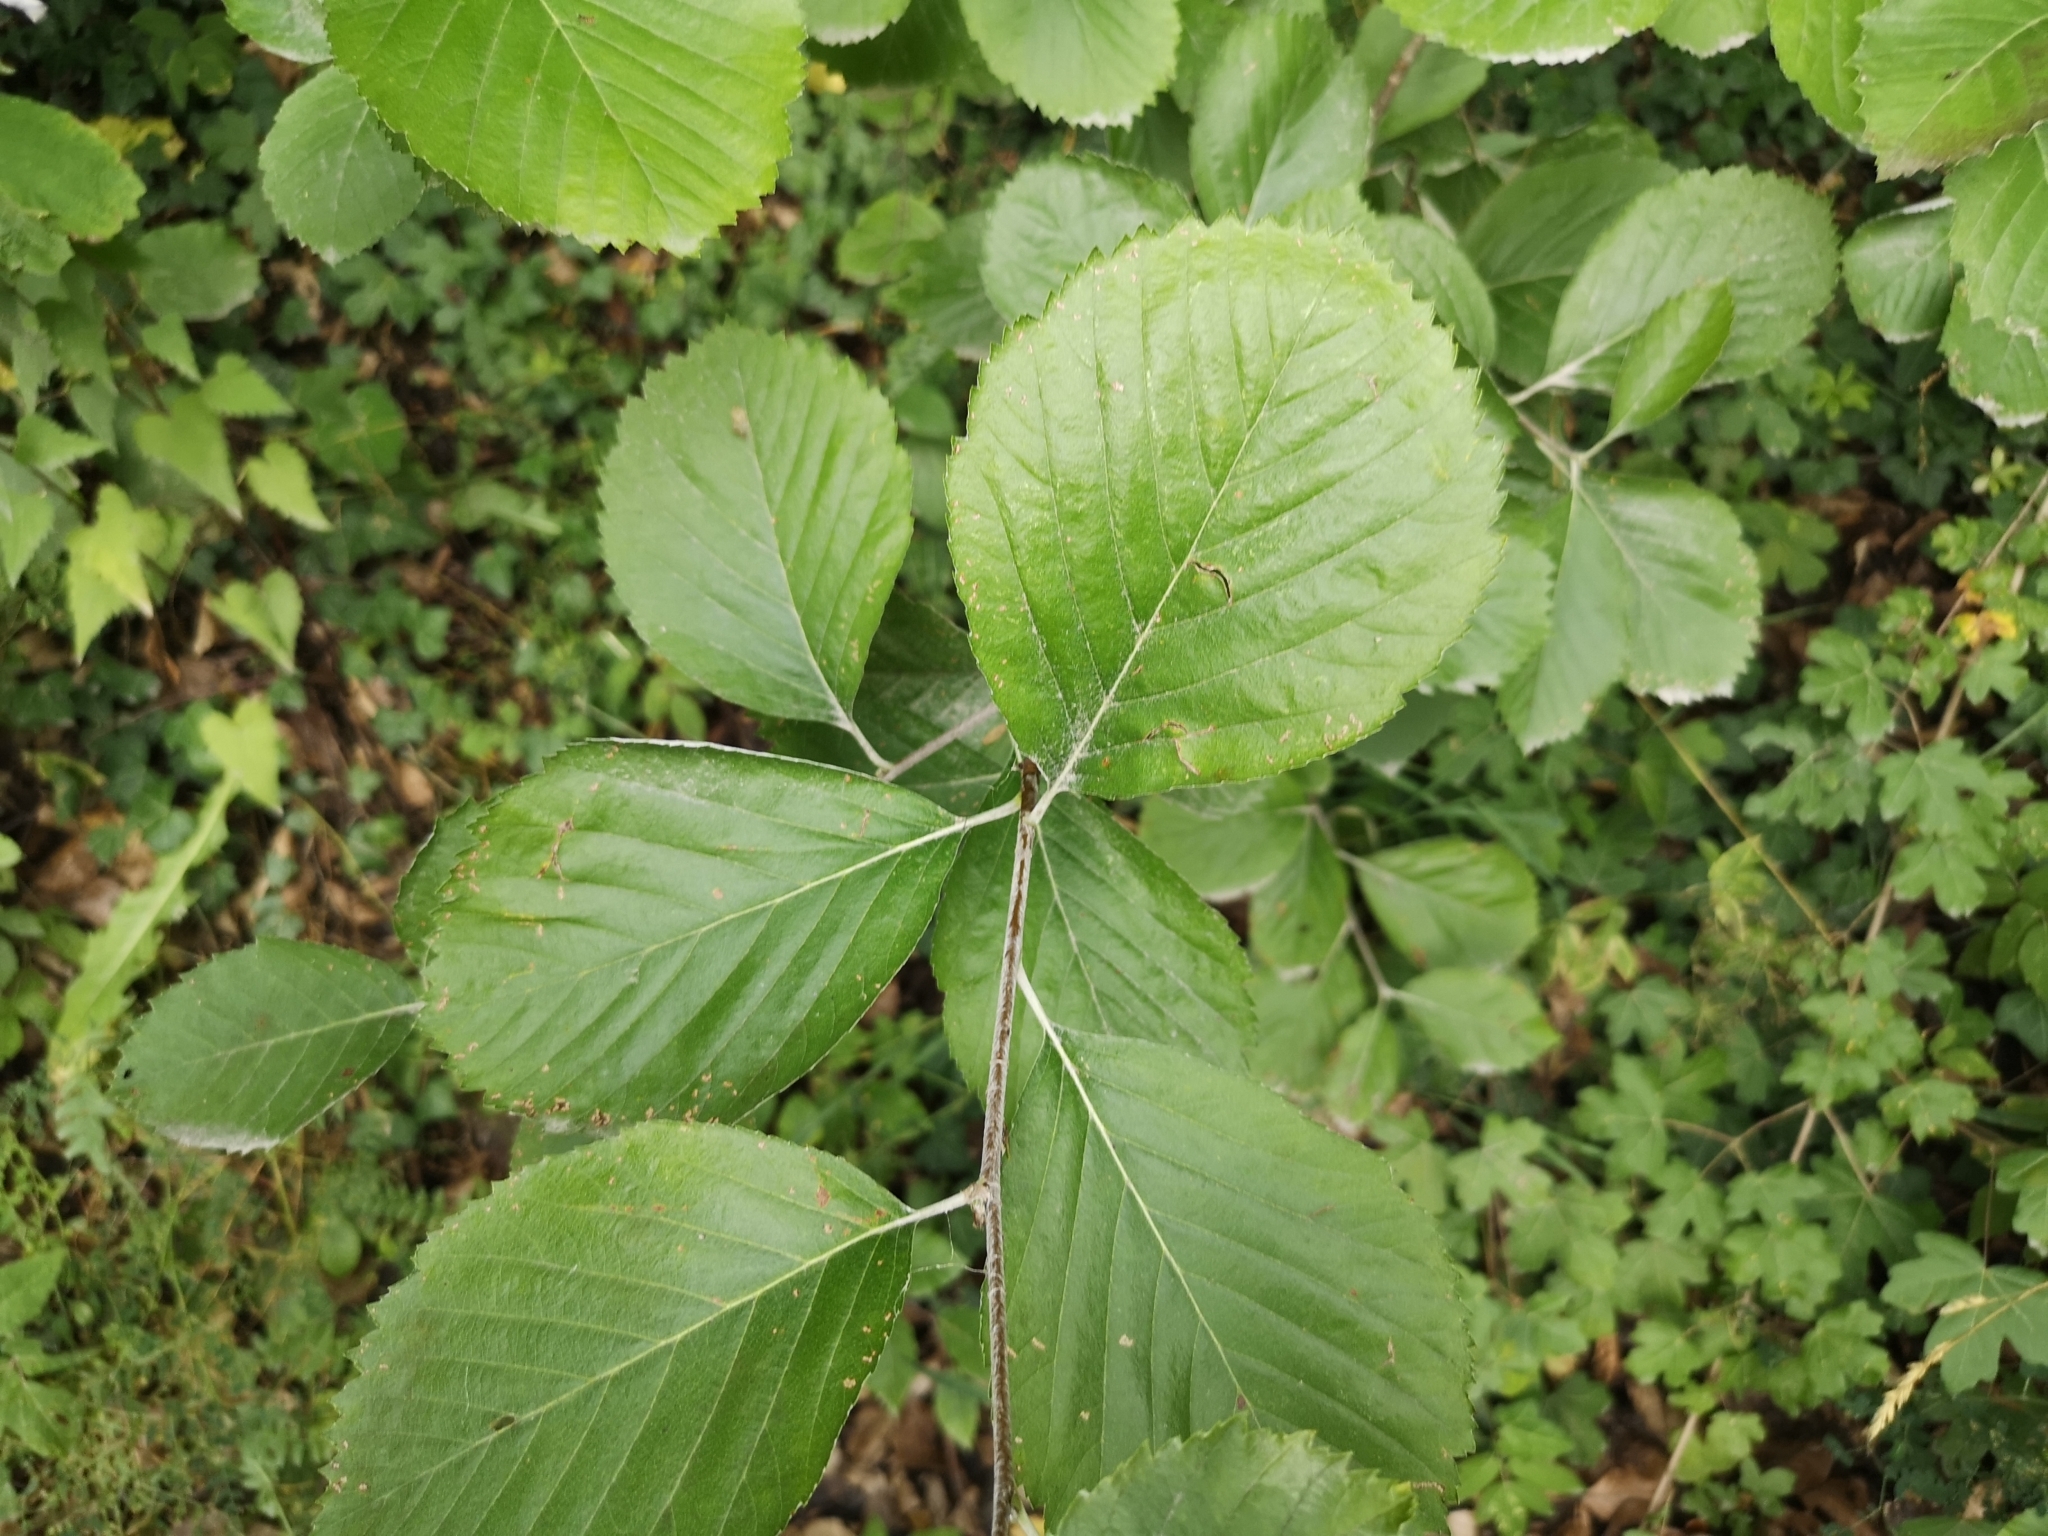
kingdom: Plantae
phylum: Tracheophyta
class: Magnoliopsida
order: Rosales
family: Rosaceae
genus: Aria
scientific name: Aria collina
